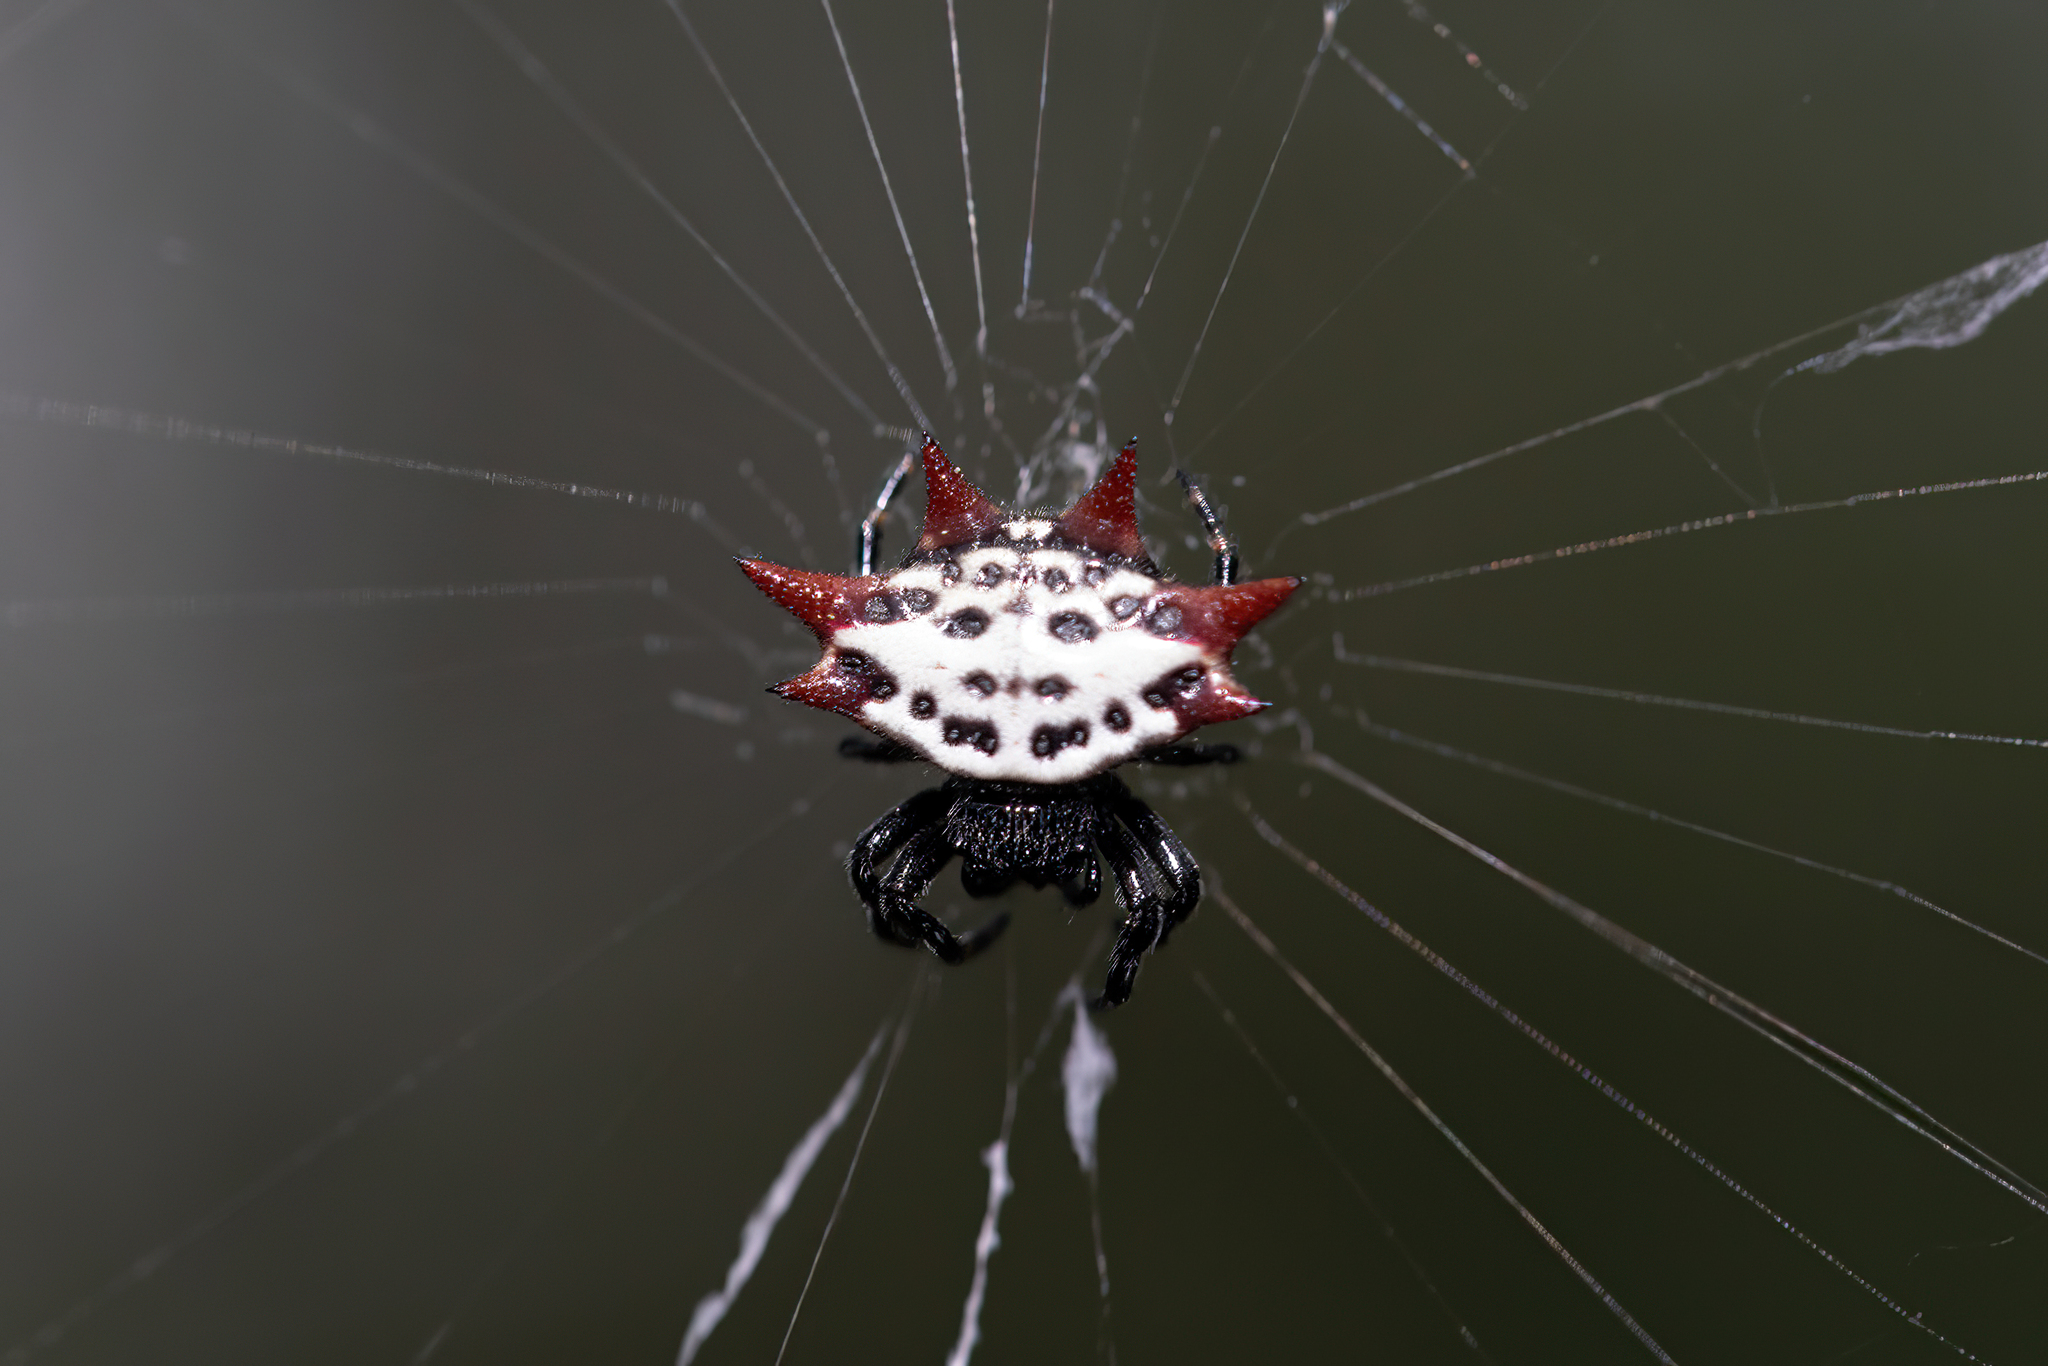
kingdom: Animalia
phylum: Arthropoda
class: Arachnida
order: Araneae
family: Araneidae
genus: Gasteracantha
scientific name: Gasteracantha cancriformis
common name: Orb weavers
